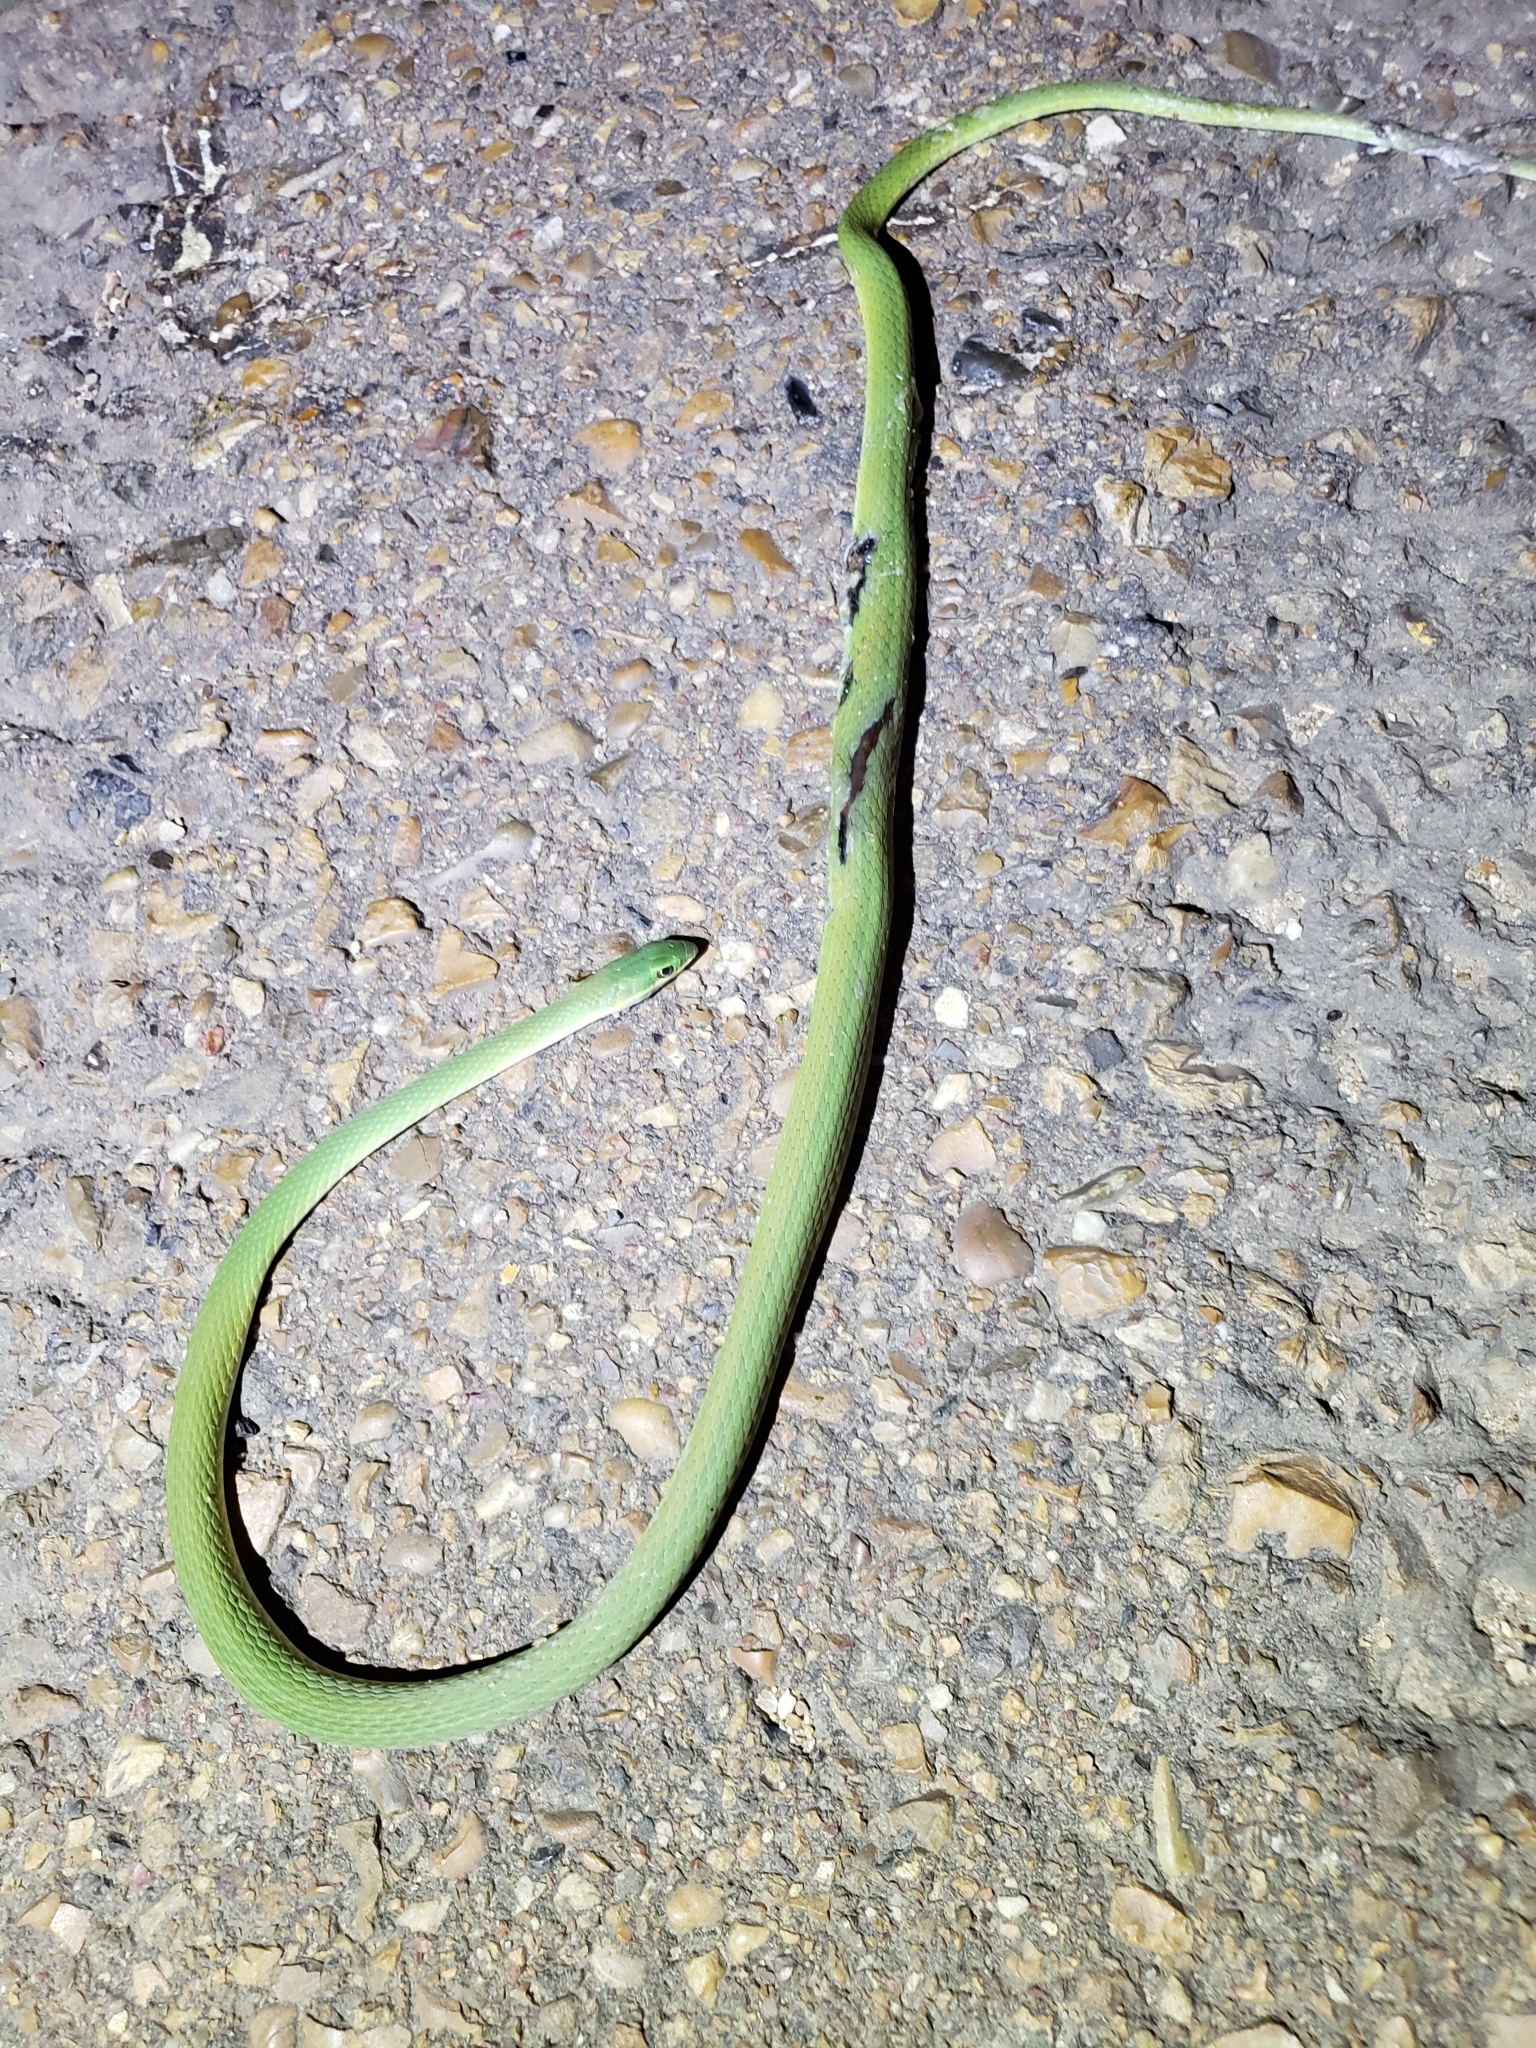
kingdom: Animalia
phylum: Chordata
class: Squamata
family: Colubridae
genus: Opheodrys
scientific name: Opheodrys aestivus
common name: Rough greensnake
